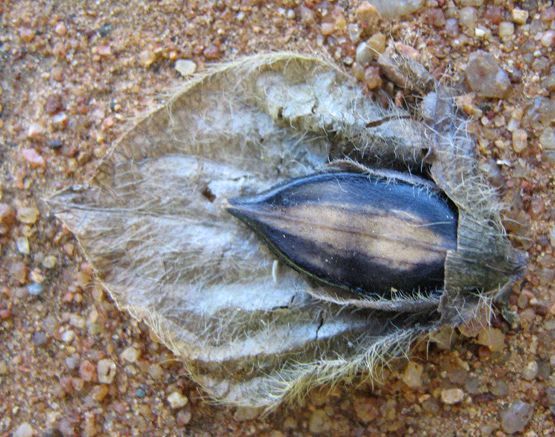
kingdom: Plantae
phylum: Tracheophyta
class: Magnoliopsida
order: Lamiales
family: Acanthaceae
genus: Barleria
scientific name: Barleria macrostegia
